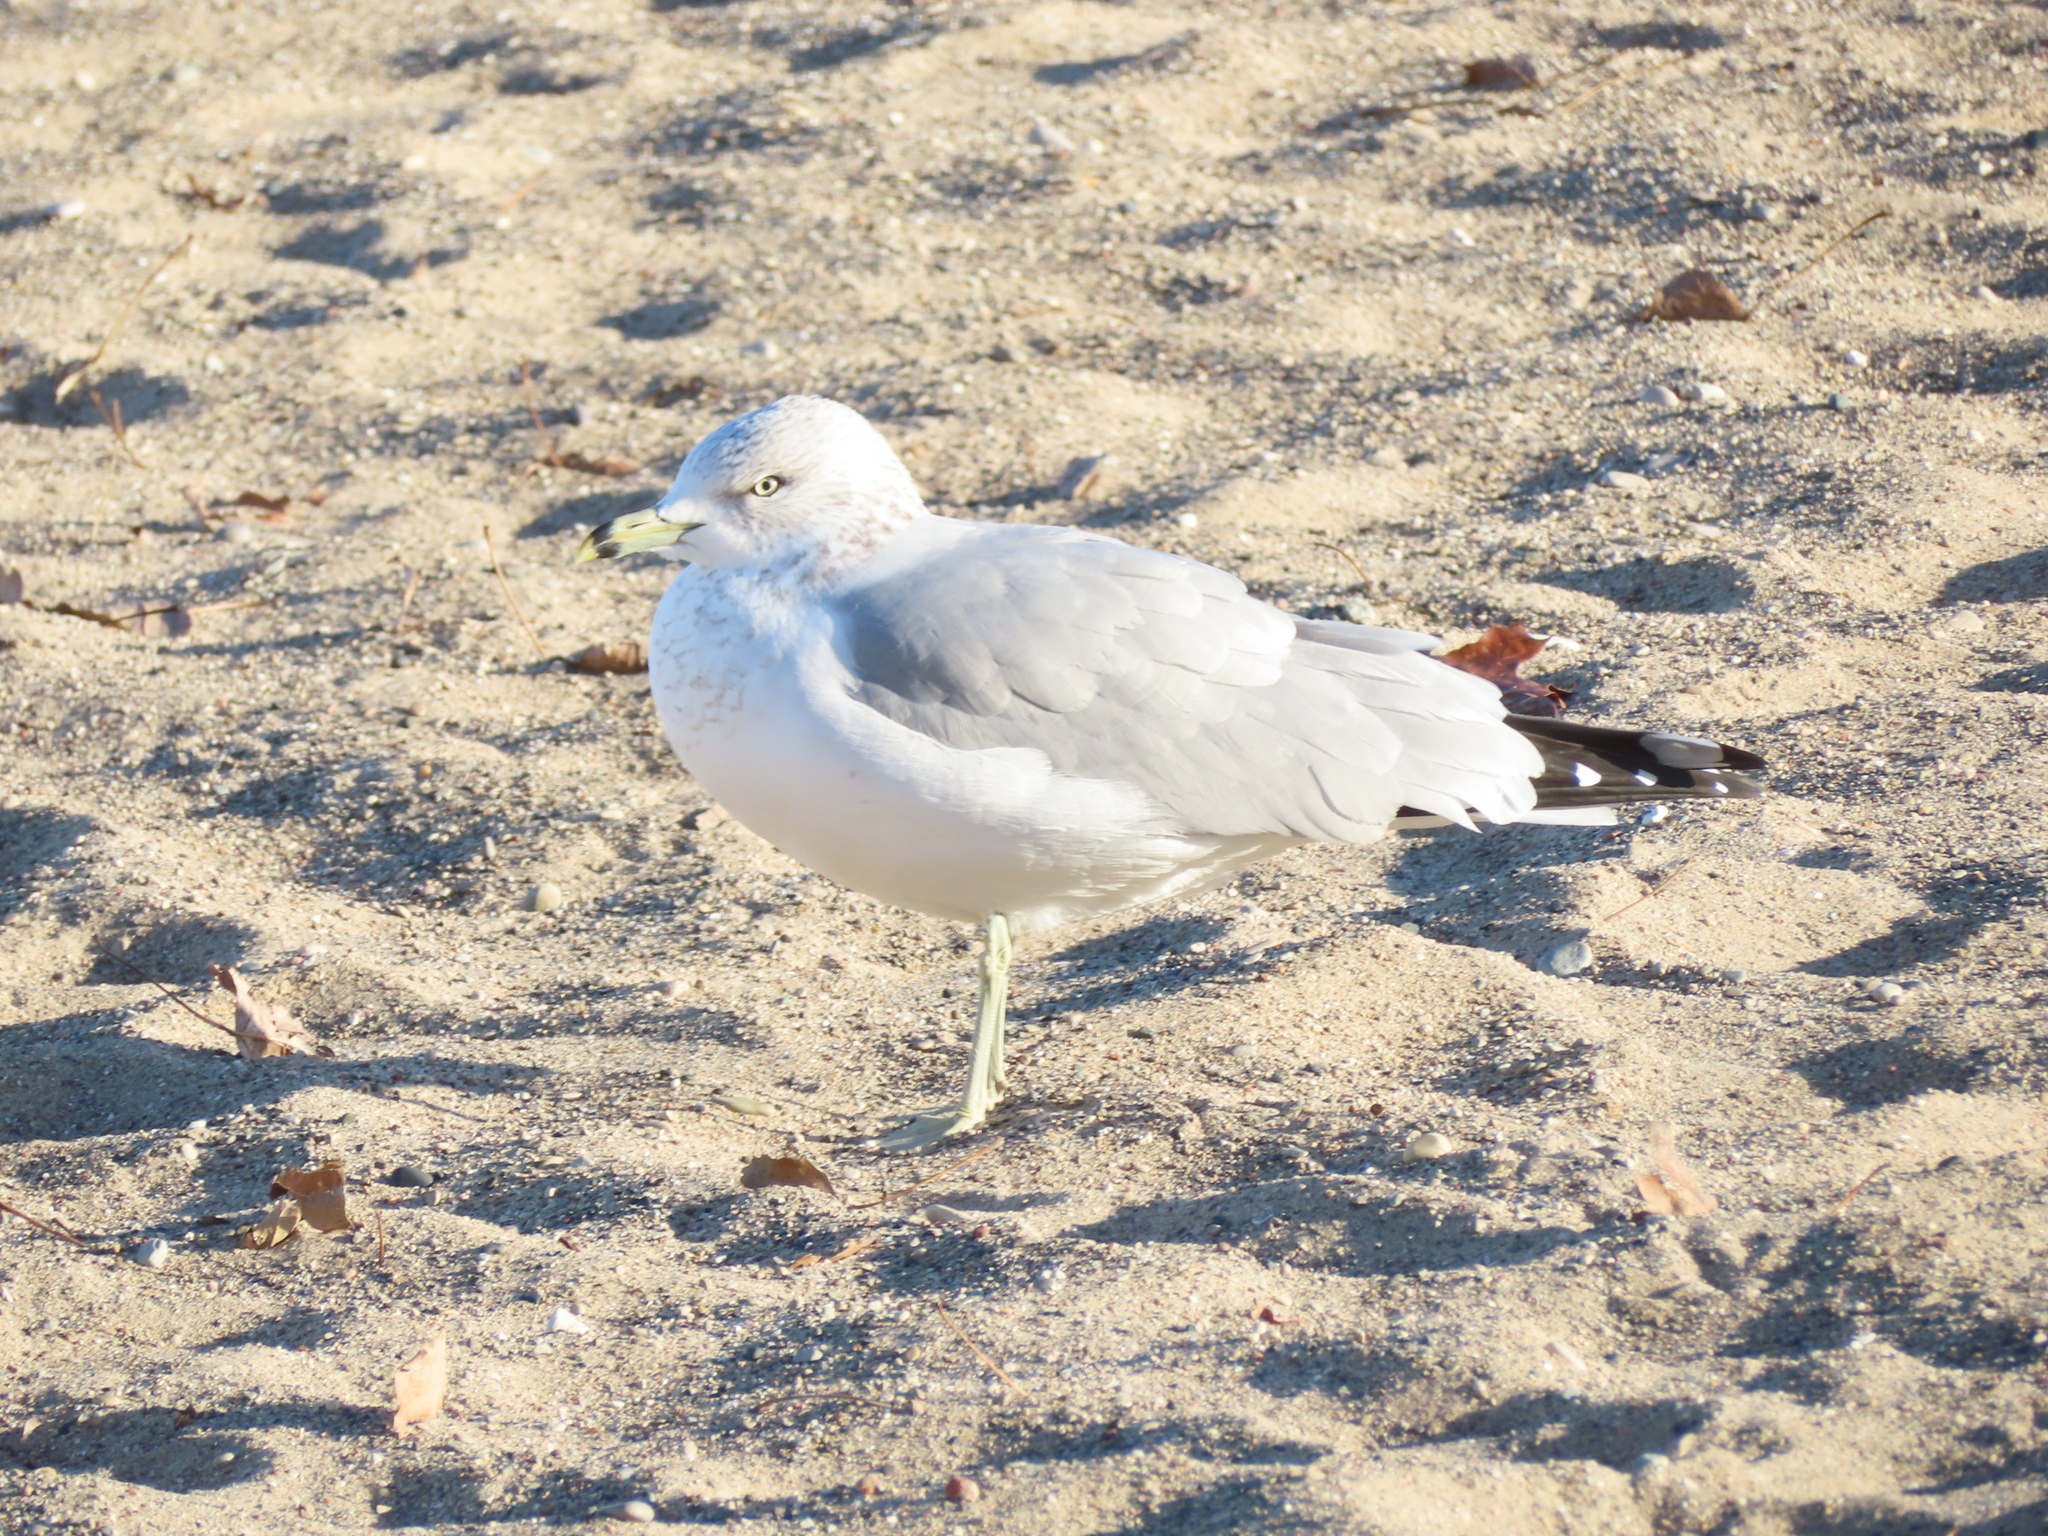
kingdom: Animalia
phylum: Chordata
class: Aves
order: Charadriiformes
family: Laridae
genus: Larus
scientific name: Larus delawarensis
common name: Ring-billed gull
